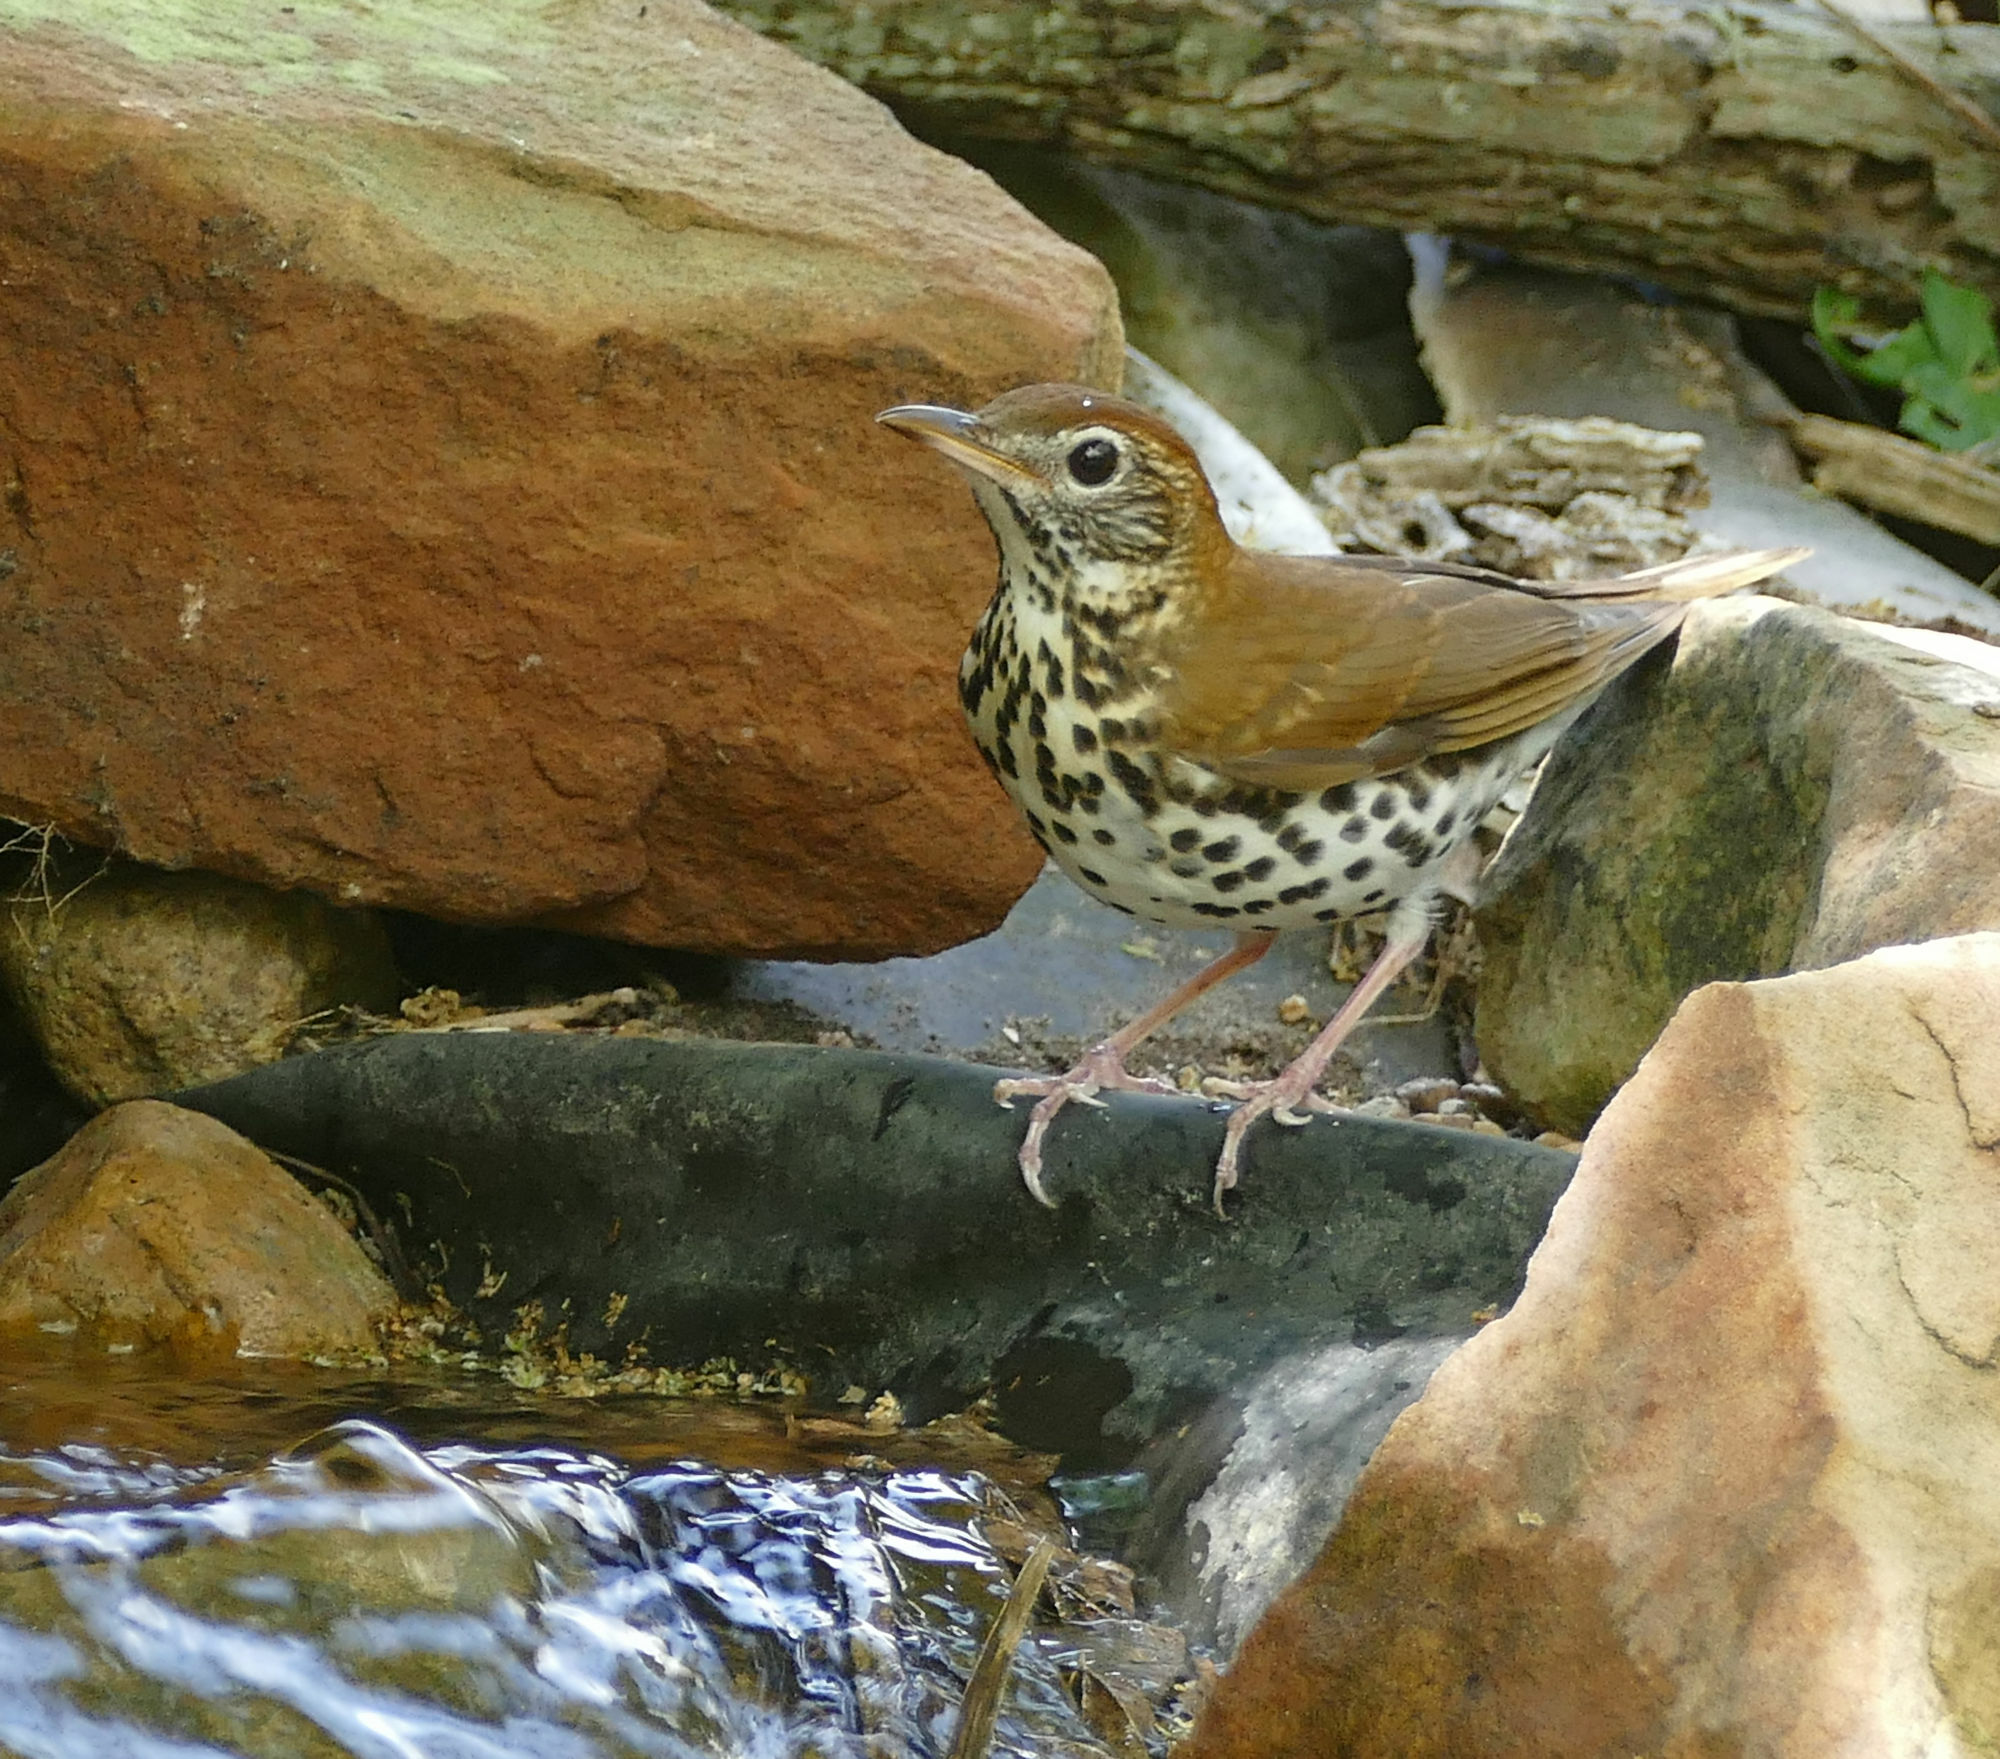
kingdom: Animalia
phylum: Chordata
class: Aves
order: Passeriformes
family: Turdidae
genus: Hylocichla
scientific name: Hylocichla mustelina
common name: Wood thrush
